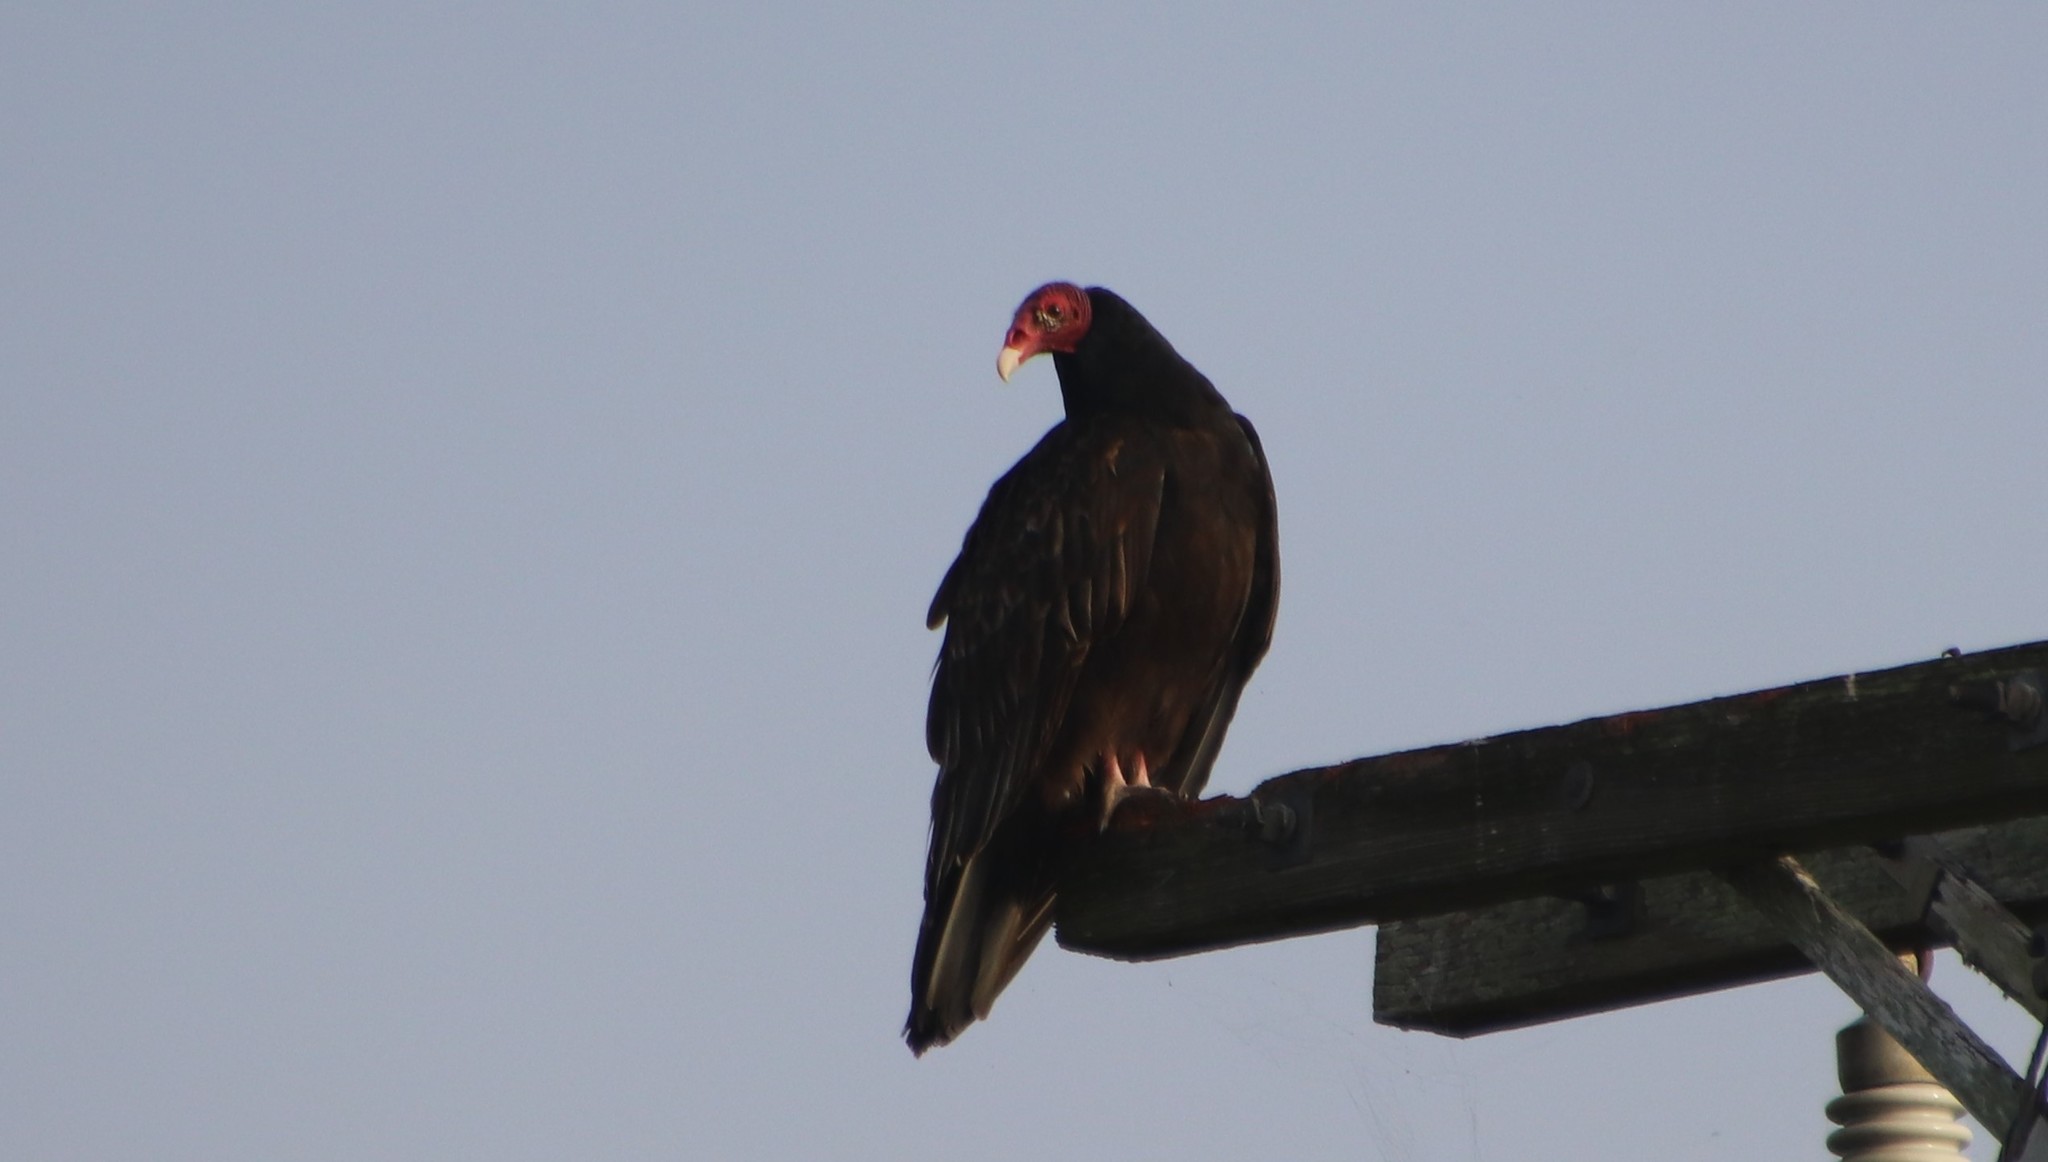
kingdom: Animalia
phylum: Chordata
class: Aves
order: Accipitriformes
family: Cathartidae
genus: Cathartes
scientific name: Cathartes aura
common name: Turkey vulture
